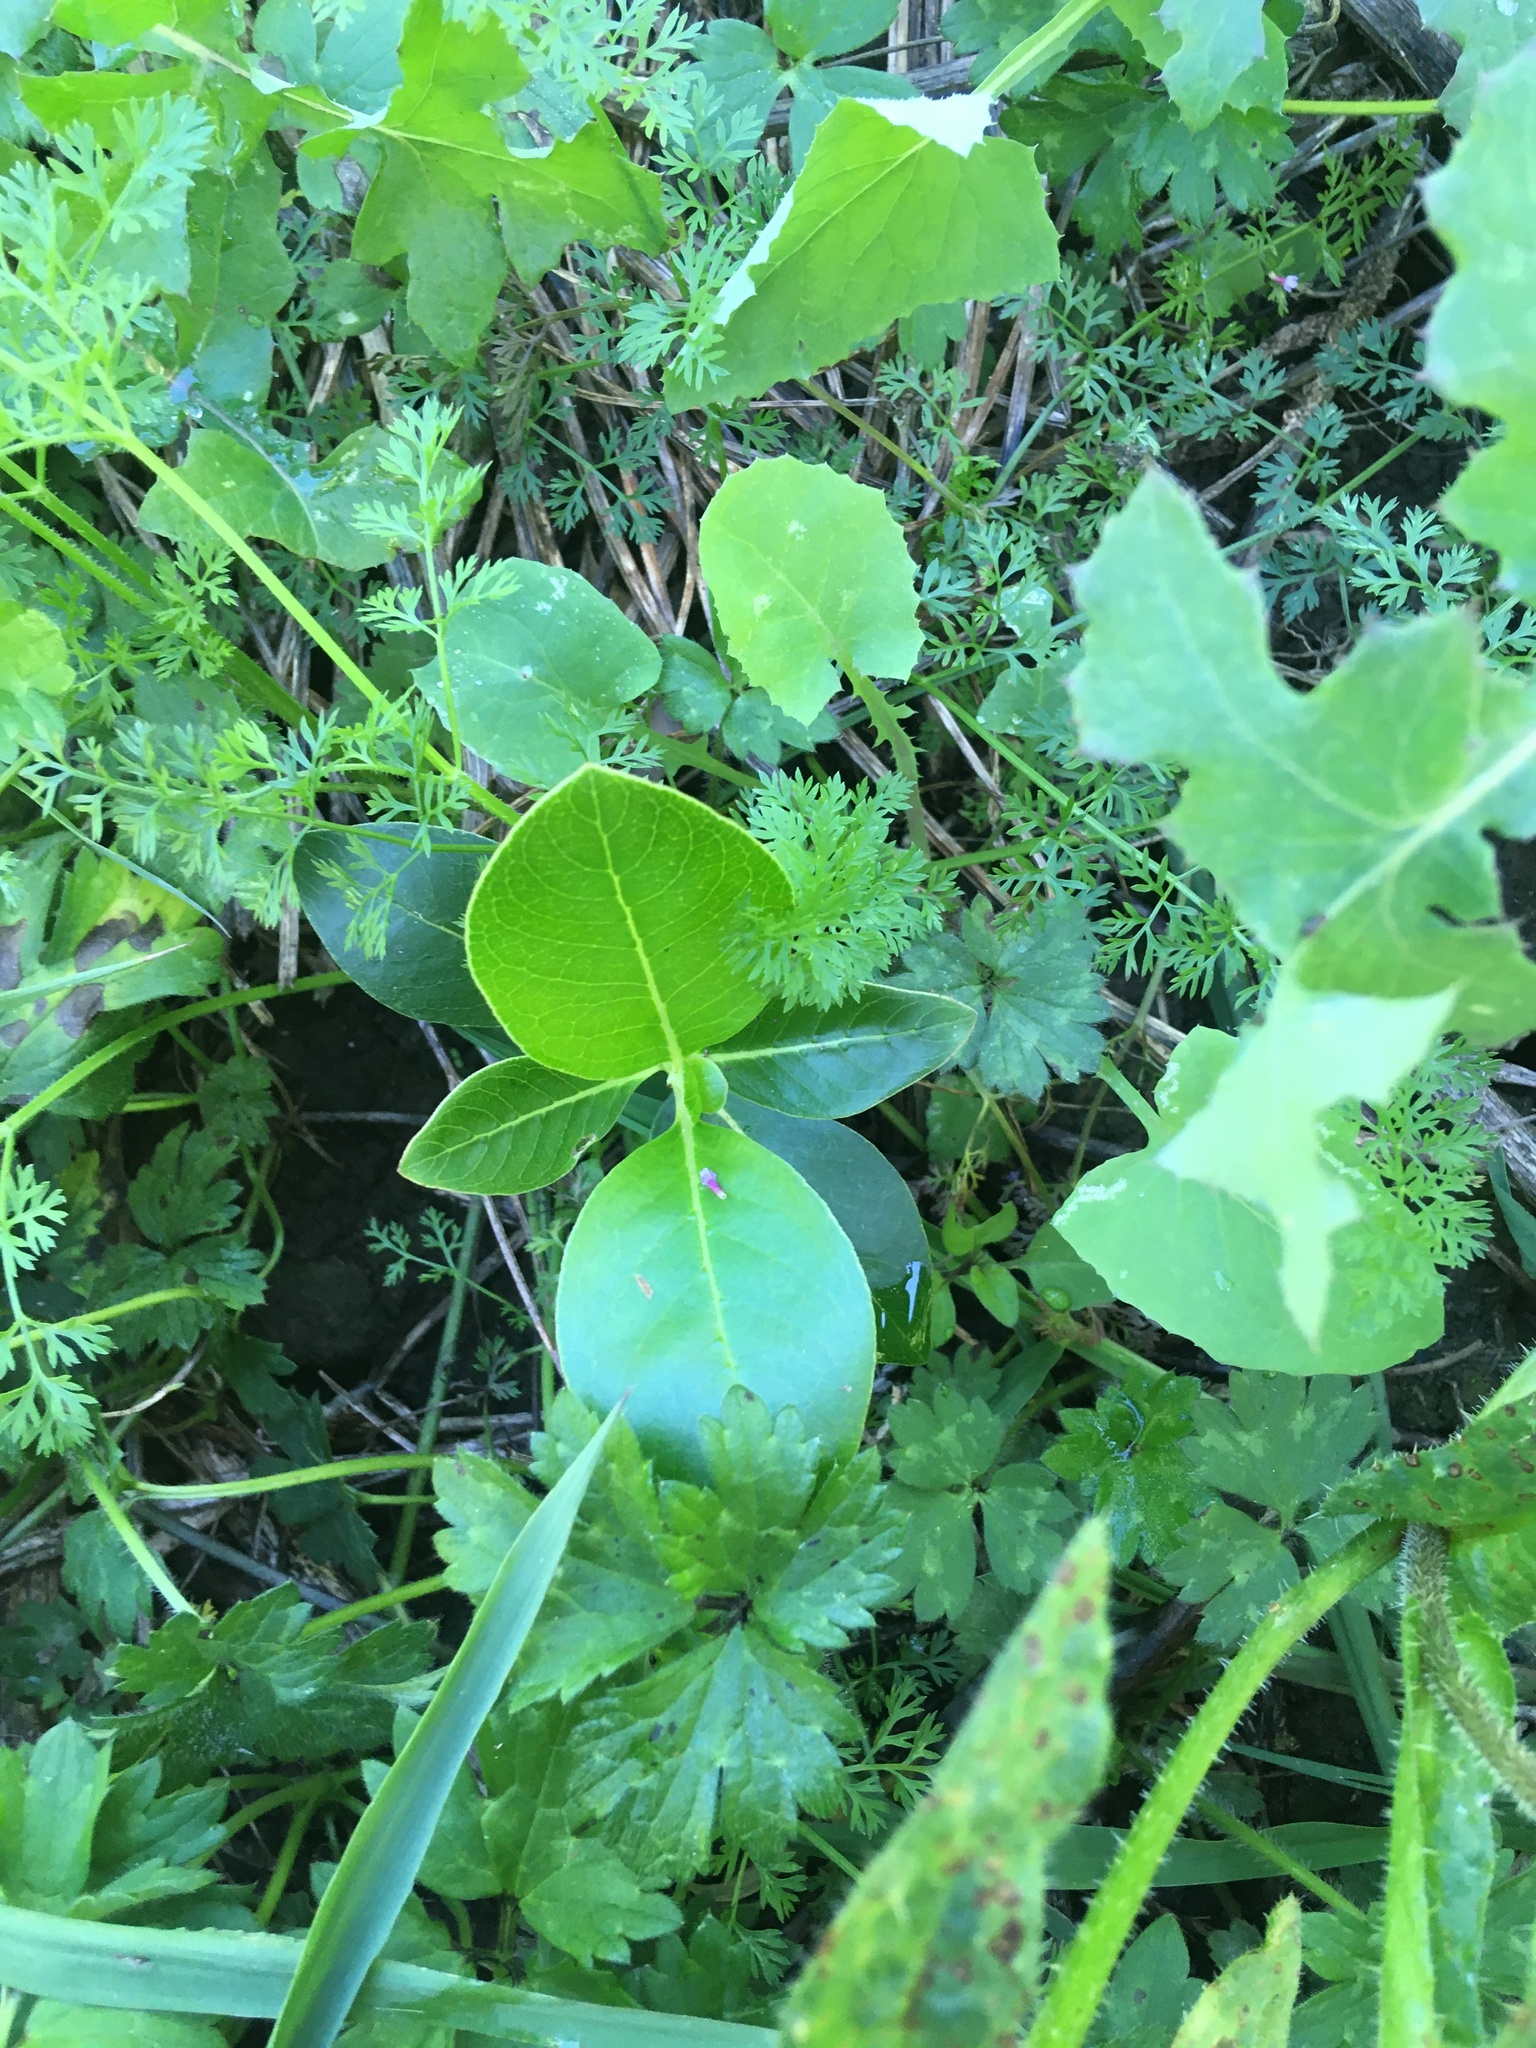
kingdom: Plantae
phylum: Tracheophyta
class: Magnoliopsida
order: Gentianales
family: Rubiaceae
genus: Coprosma
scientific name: Coprosma robusta
